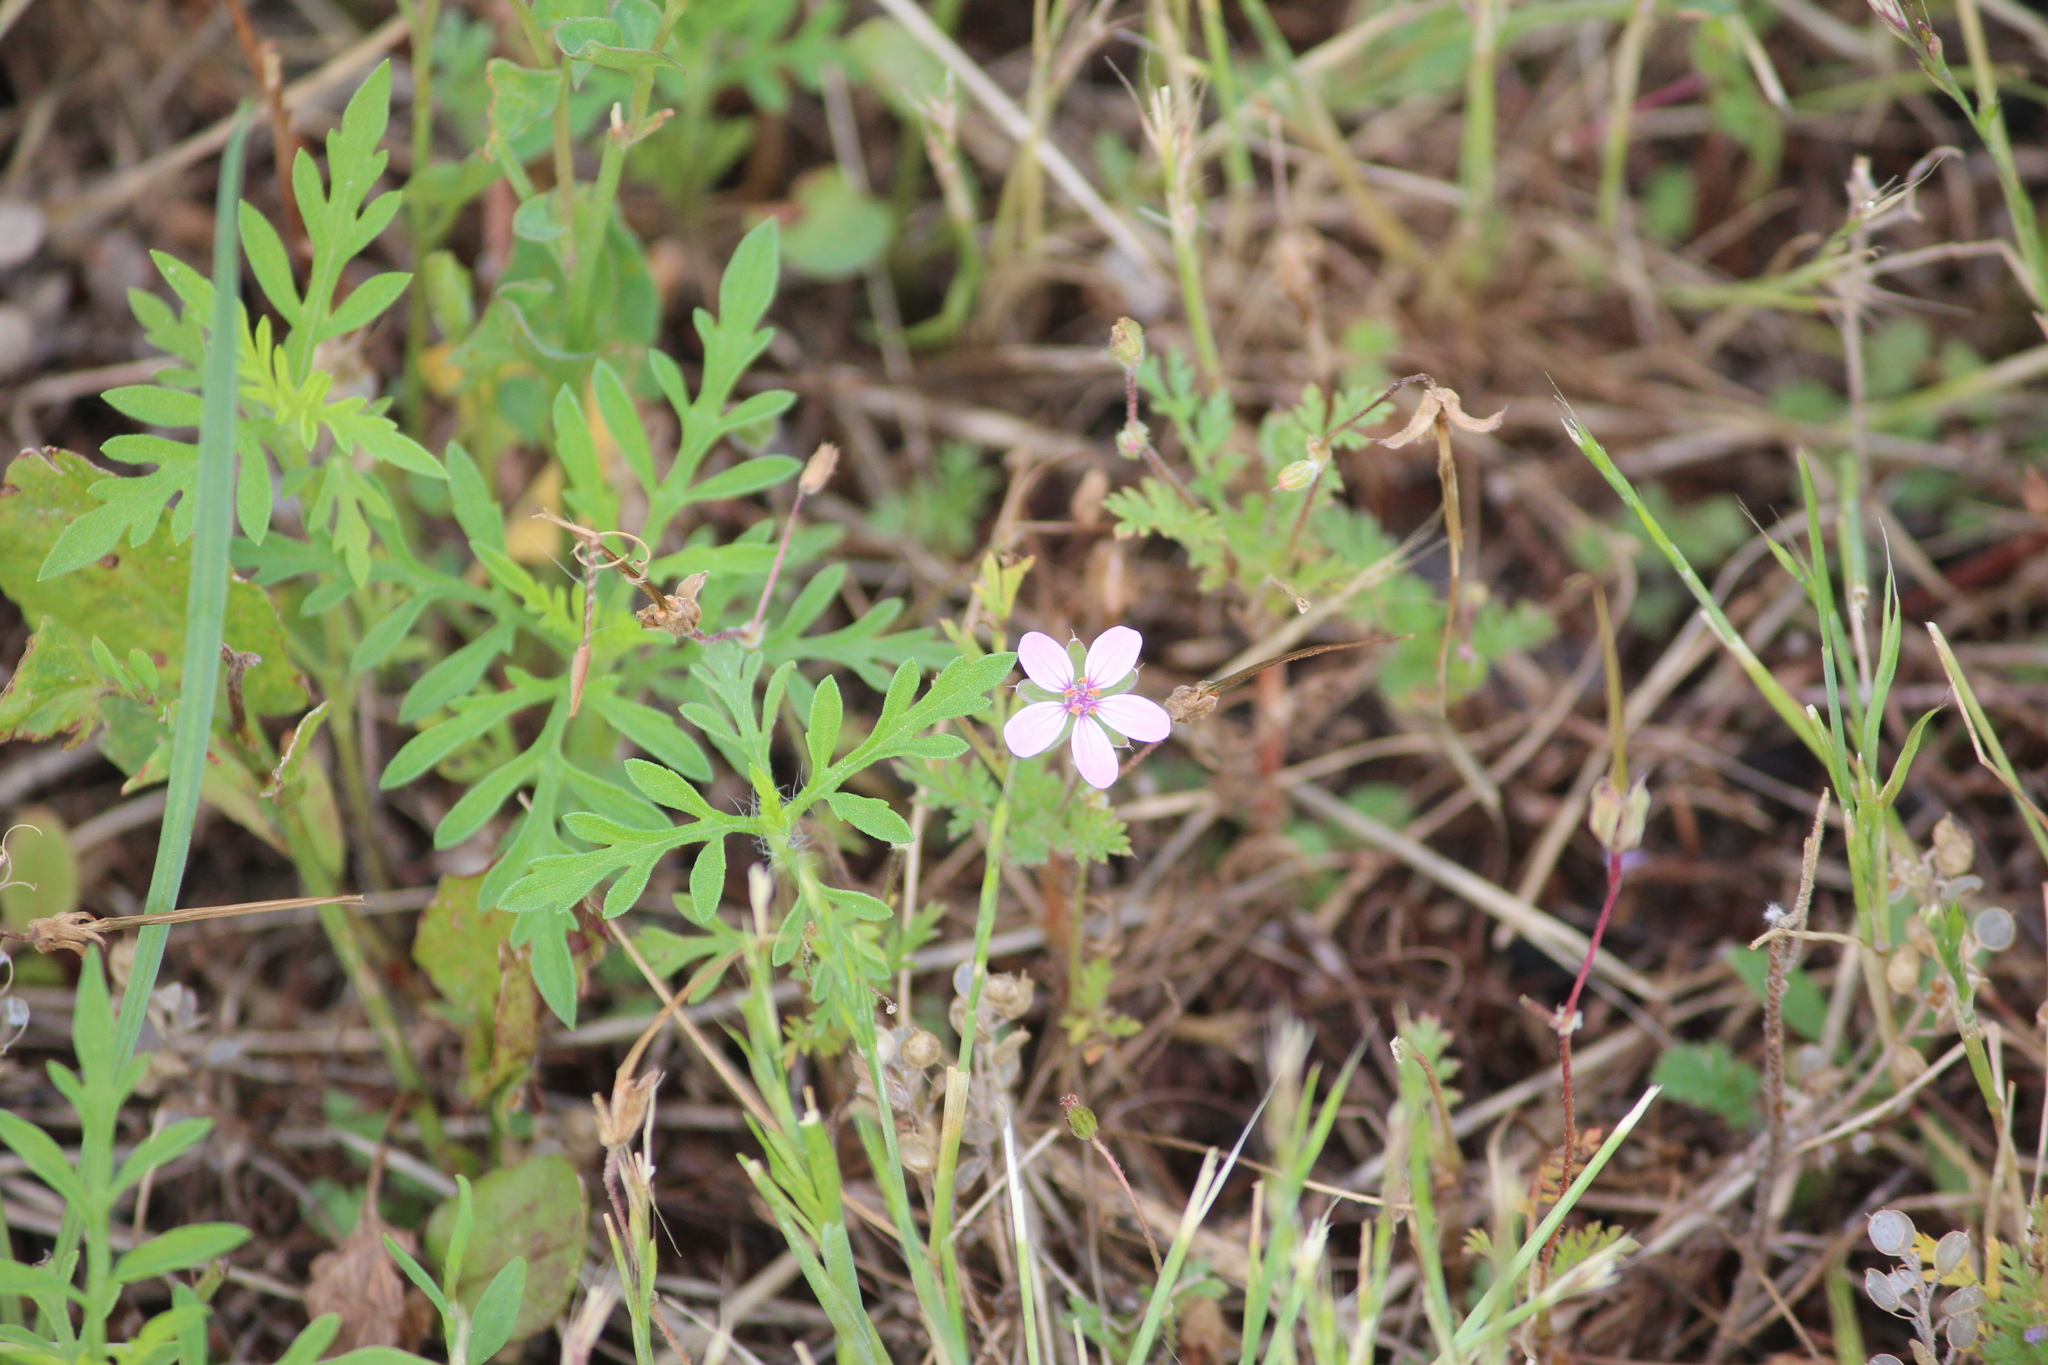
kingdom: Plantae
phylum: Tracheophyta
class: Magnoliopsida
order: Geraniales
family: Geraniaceae
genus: Erodium
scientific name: Erodium cicutarium
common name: Common stork's-bill
